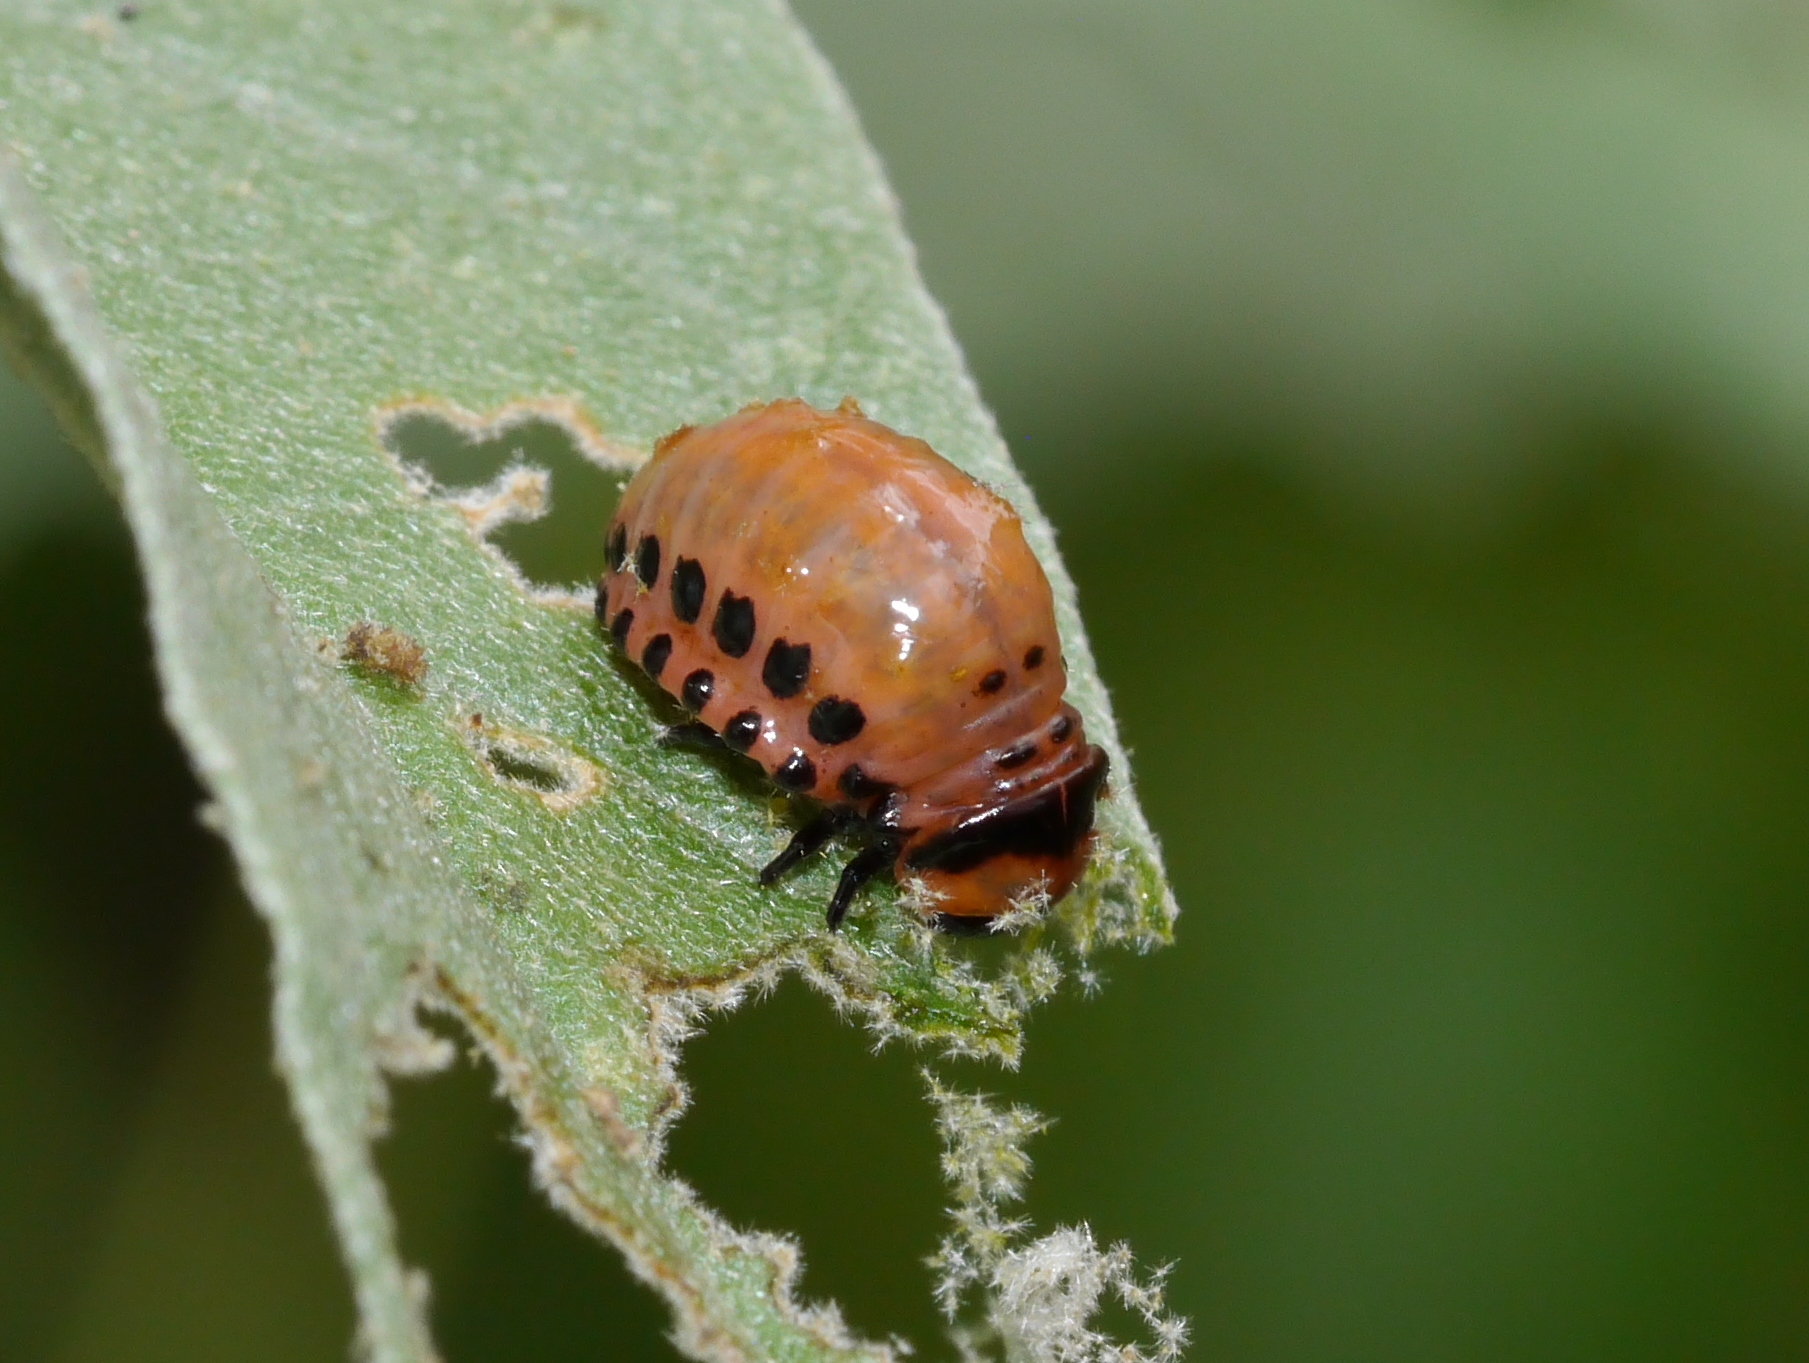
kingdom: Animalia
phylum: Arthropoda
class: Insecta
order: Coleoptera
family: Chrysomelidae
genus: Leptinotarsa
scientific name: Leptinotarsa decemlineata
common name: Colorado potato beetle
